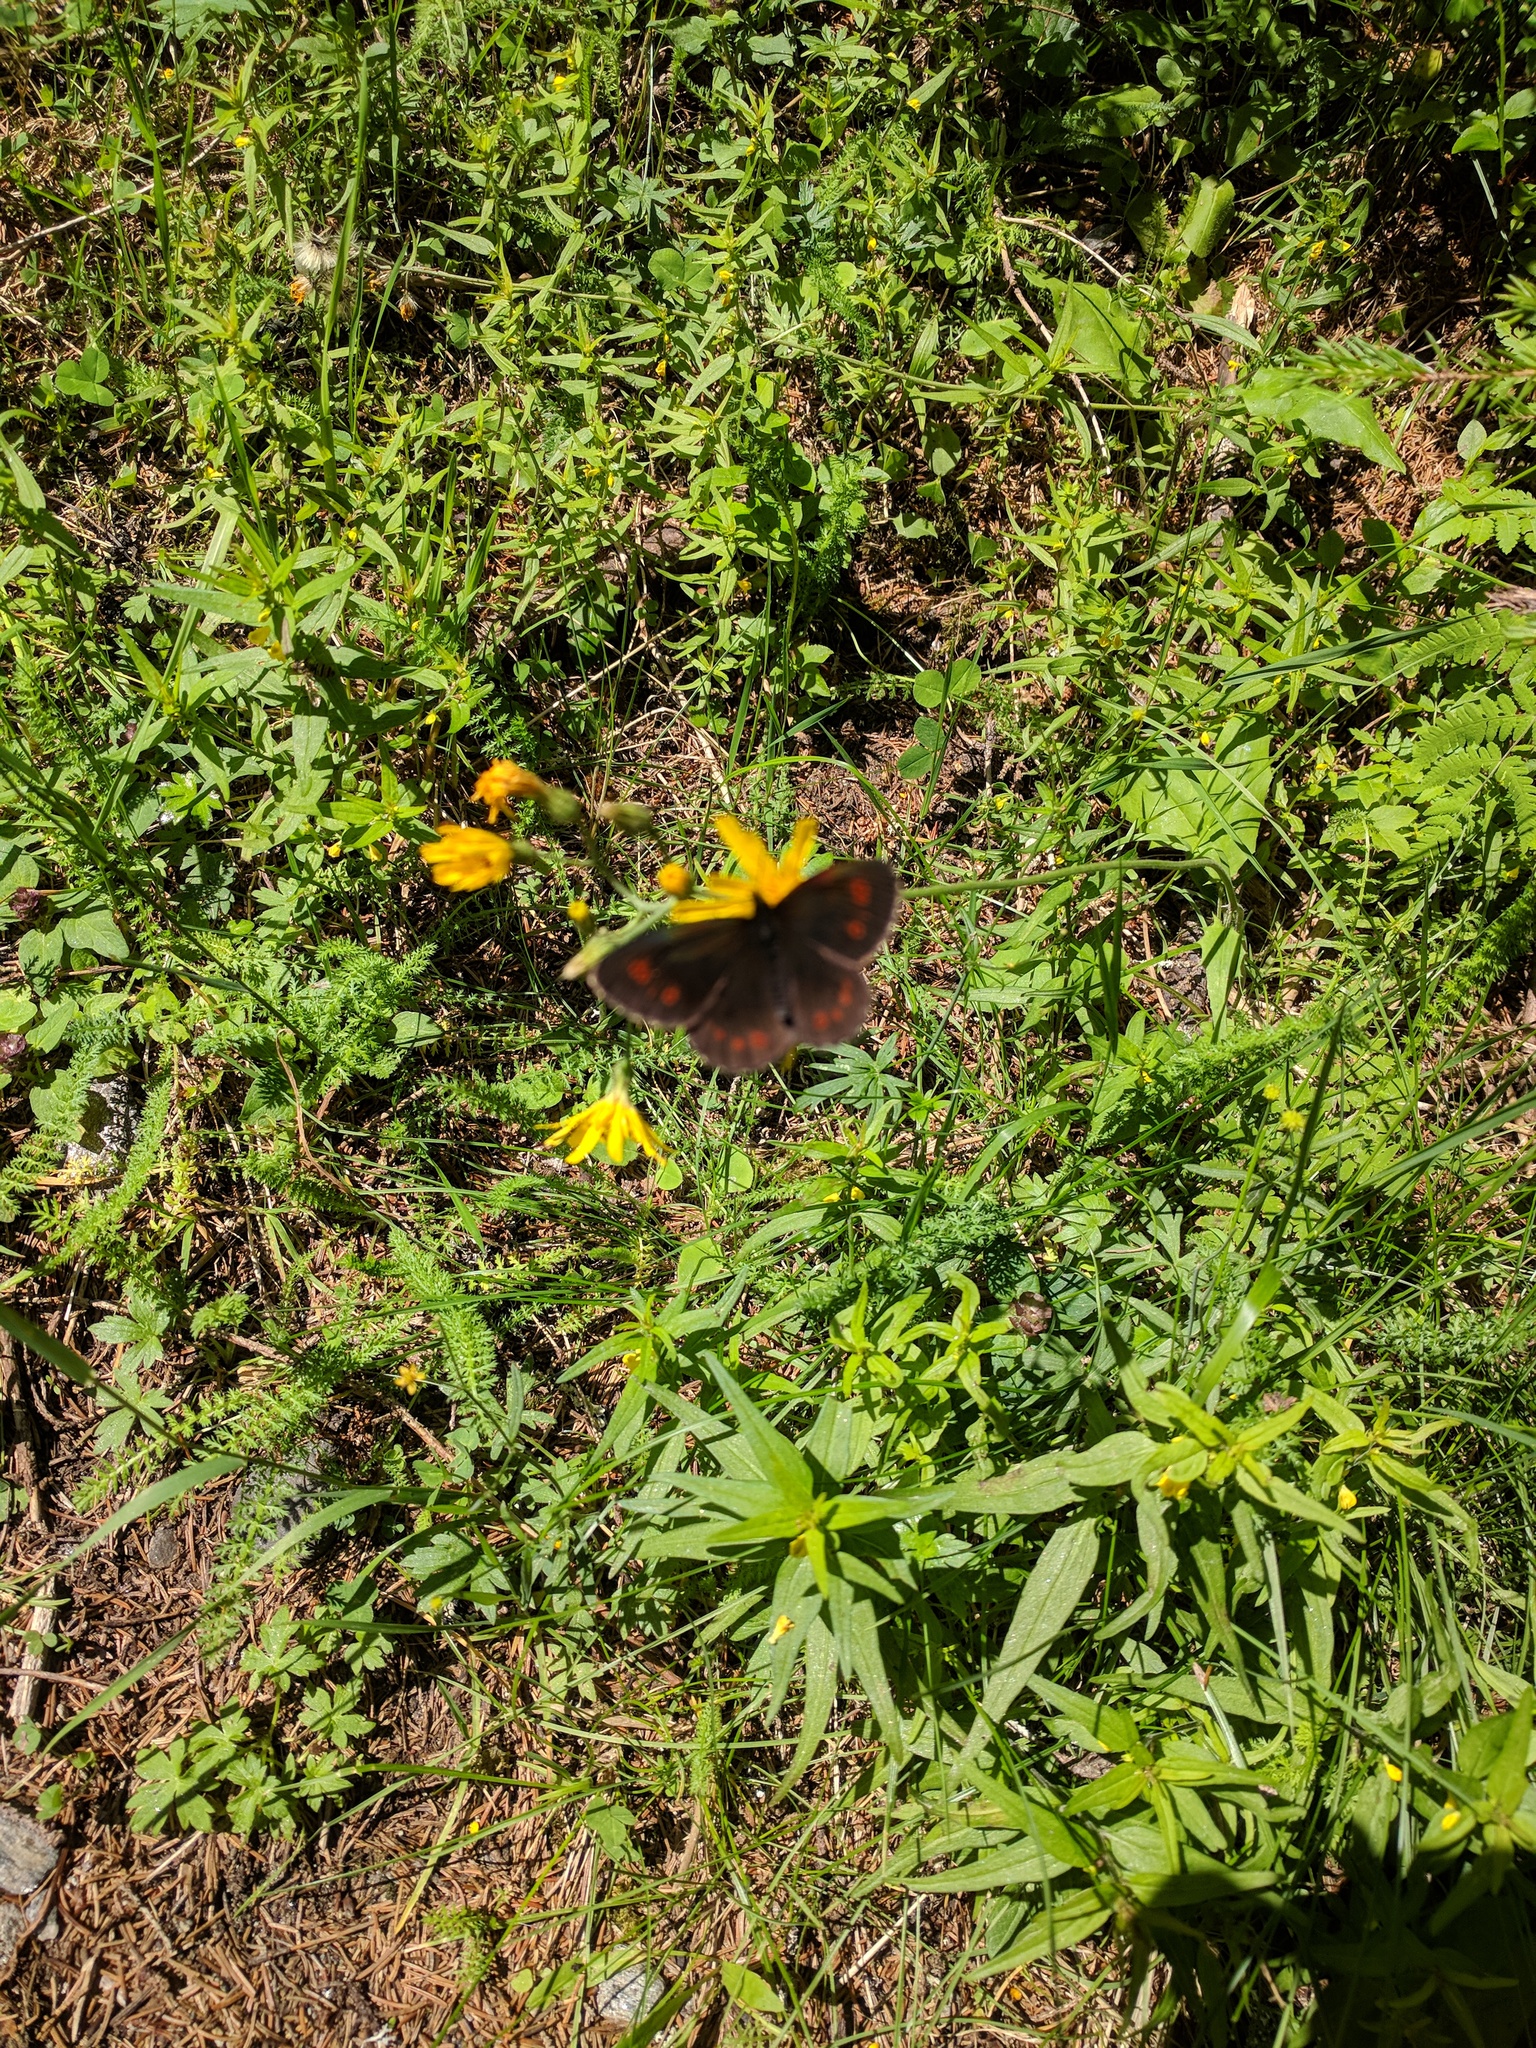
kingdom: Animalia
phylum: Arthropoda
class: Insecta
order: Lepidoptera
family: Nymphalidae
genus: Erebia
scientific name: Erebia euryale
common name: Large ringlet
